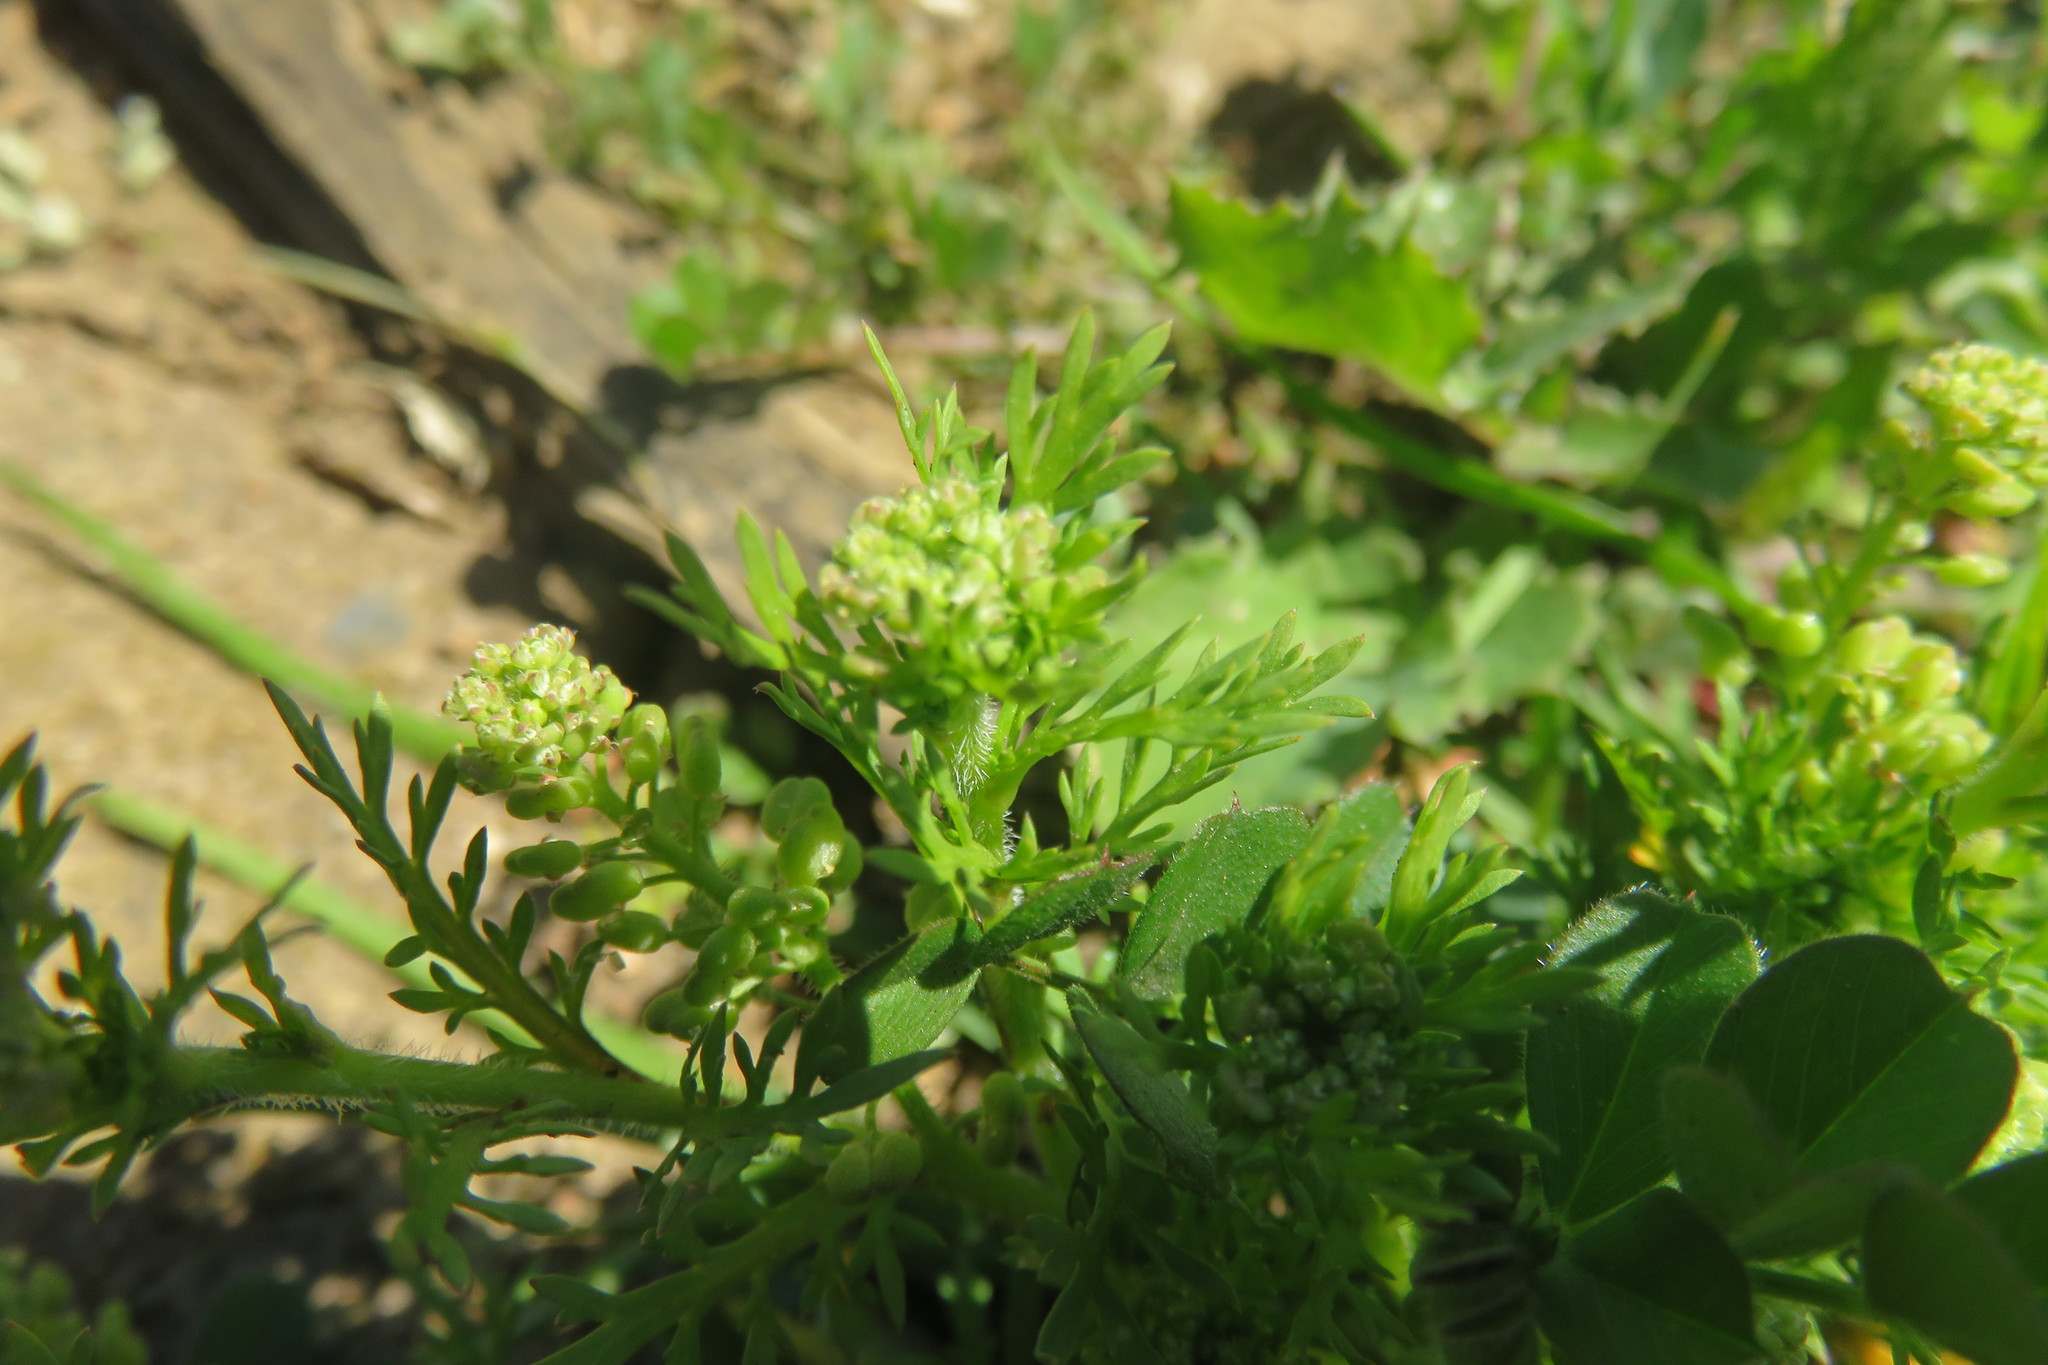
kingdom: Plantae
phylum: Tracheophyta
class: Magnoliopsida
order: Brassicales
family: Brassicaceae
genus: Lepidium
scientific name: Lepidium didymum
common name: Lesser swinecress
